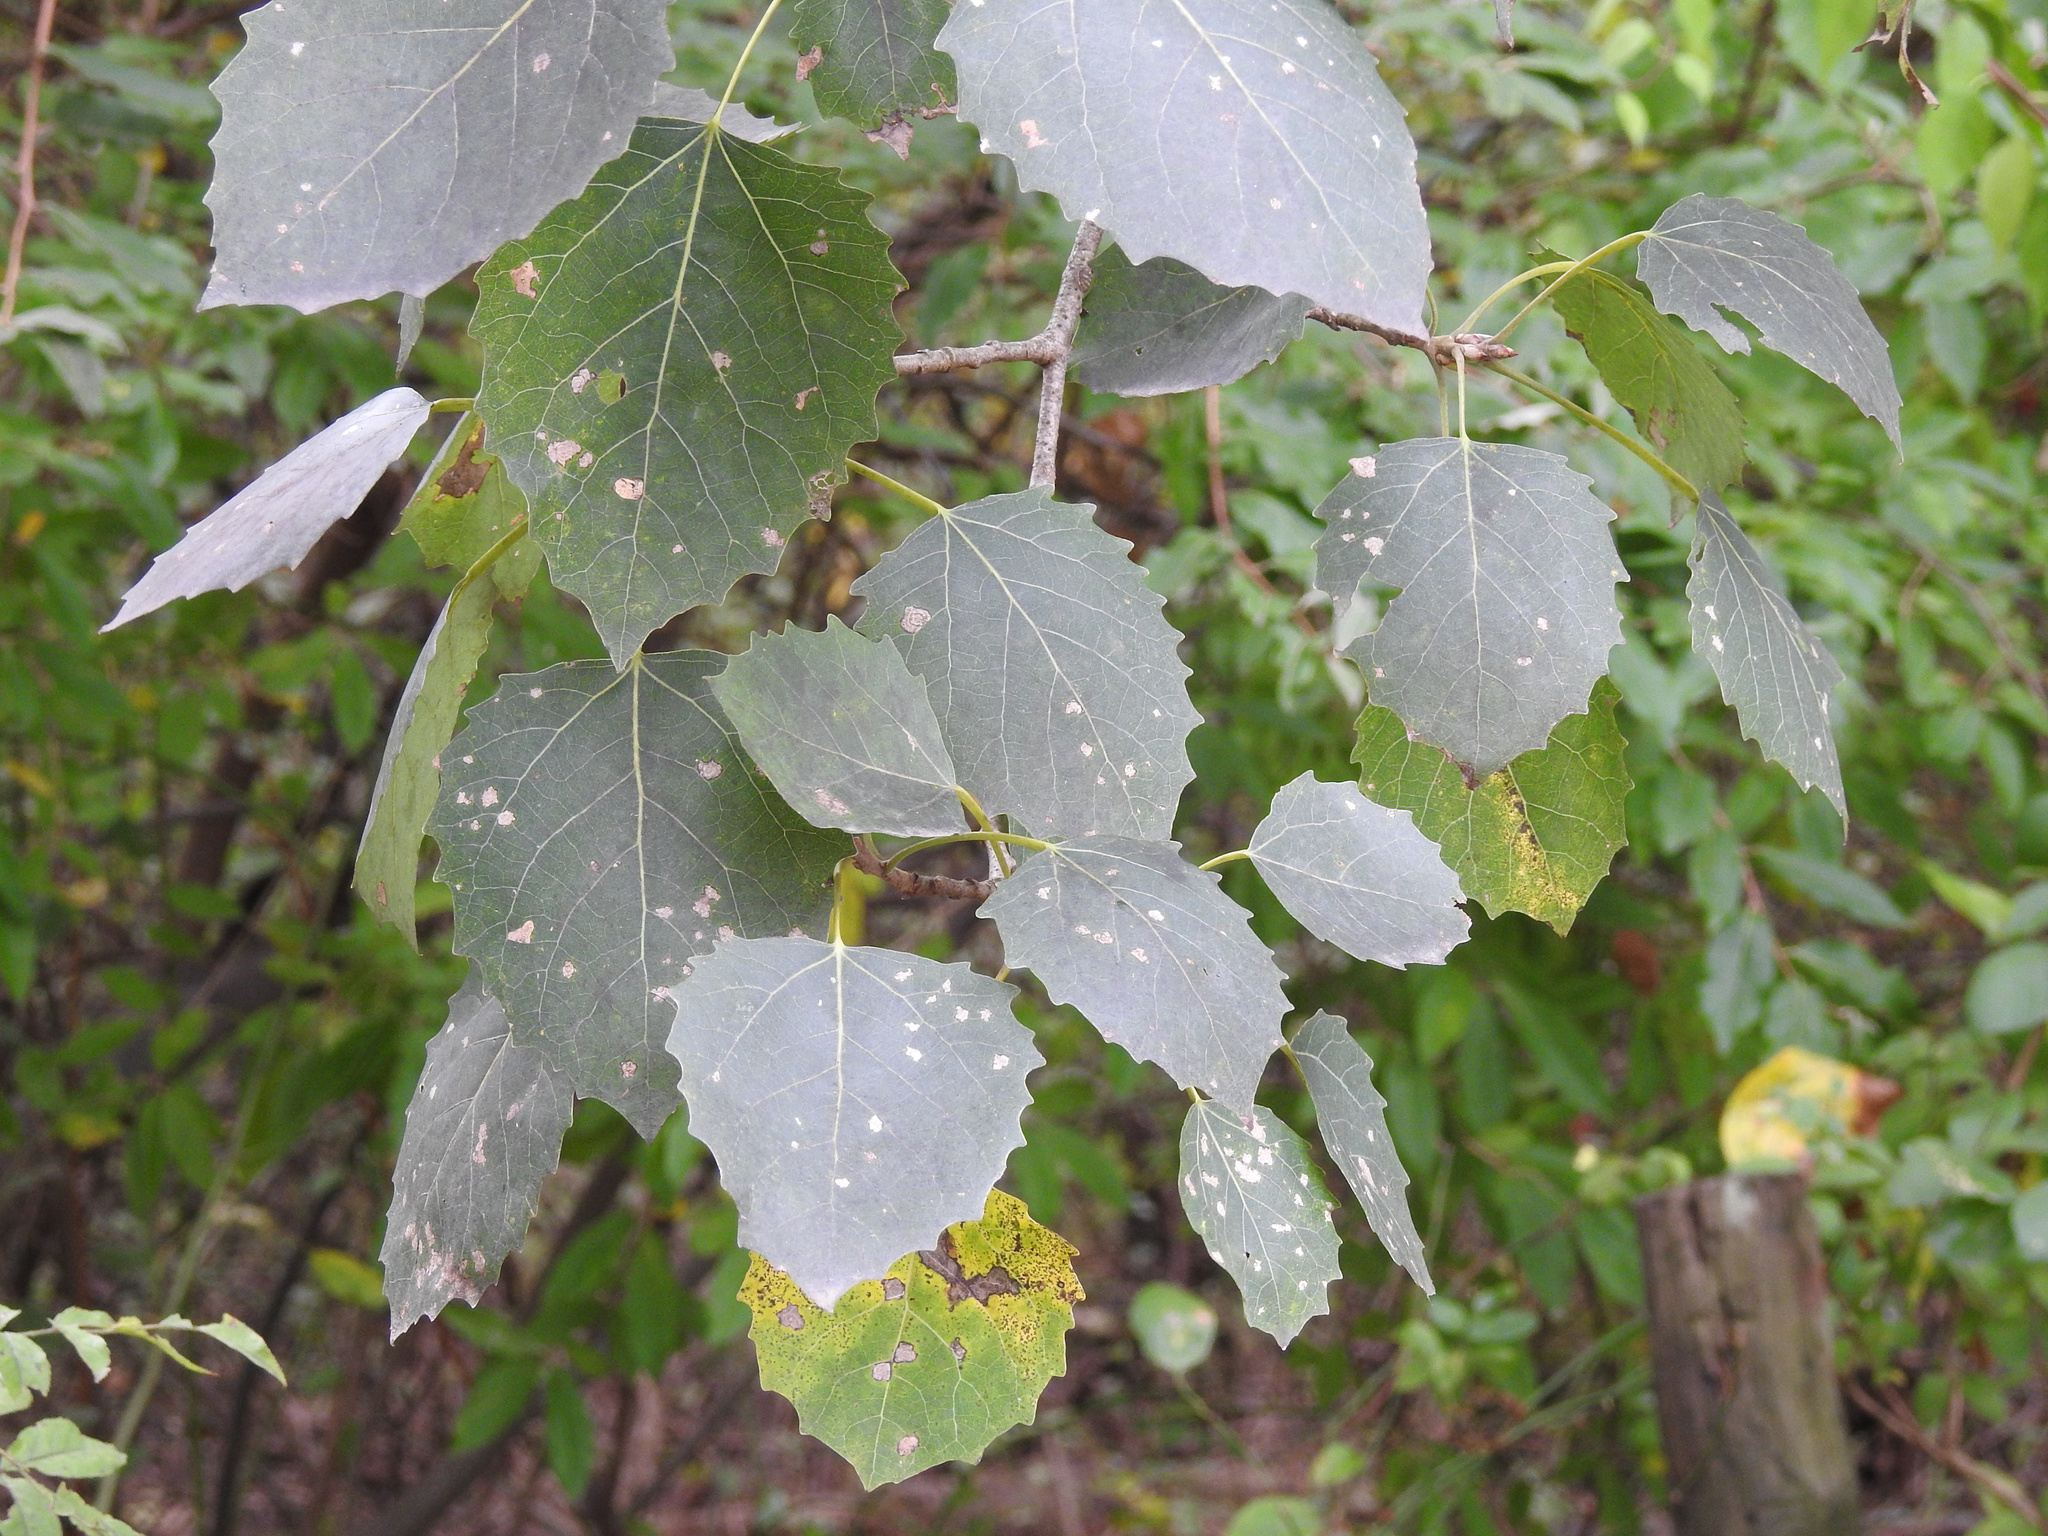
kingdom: Plantae
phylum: Tracheophyta
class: Magnoliopsida
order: Malpighiales
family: Salicaceae
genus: Populus
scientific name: Populus grandidentata
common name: Bigtooth aspen
